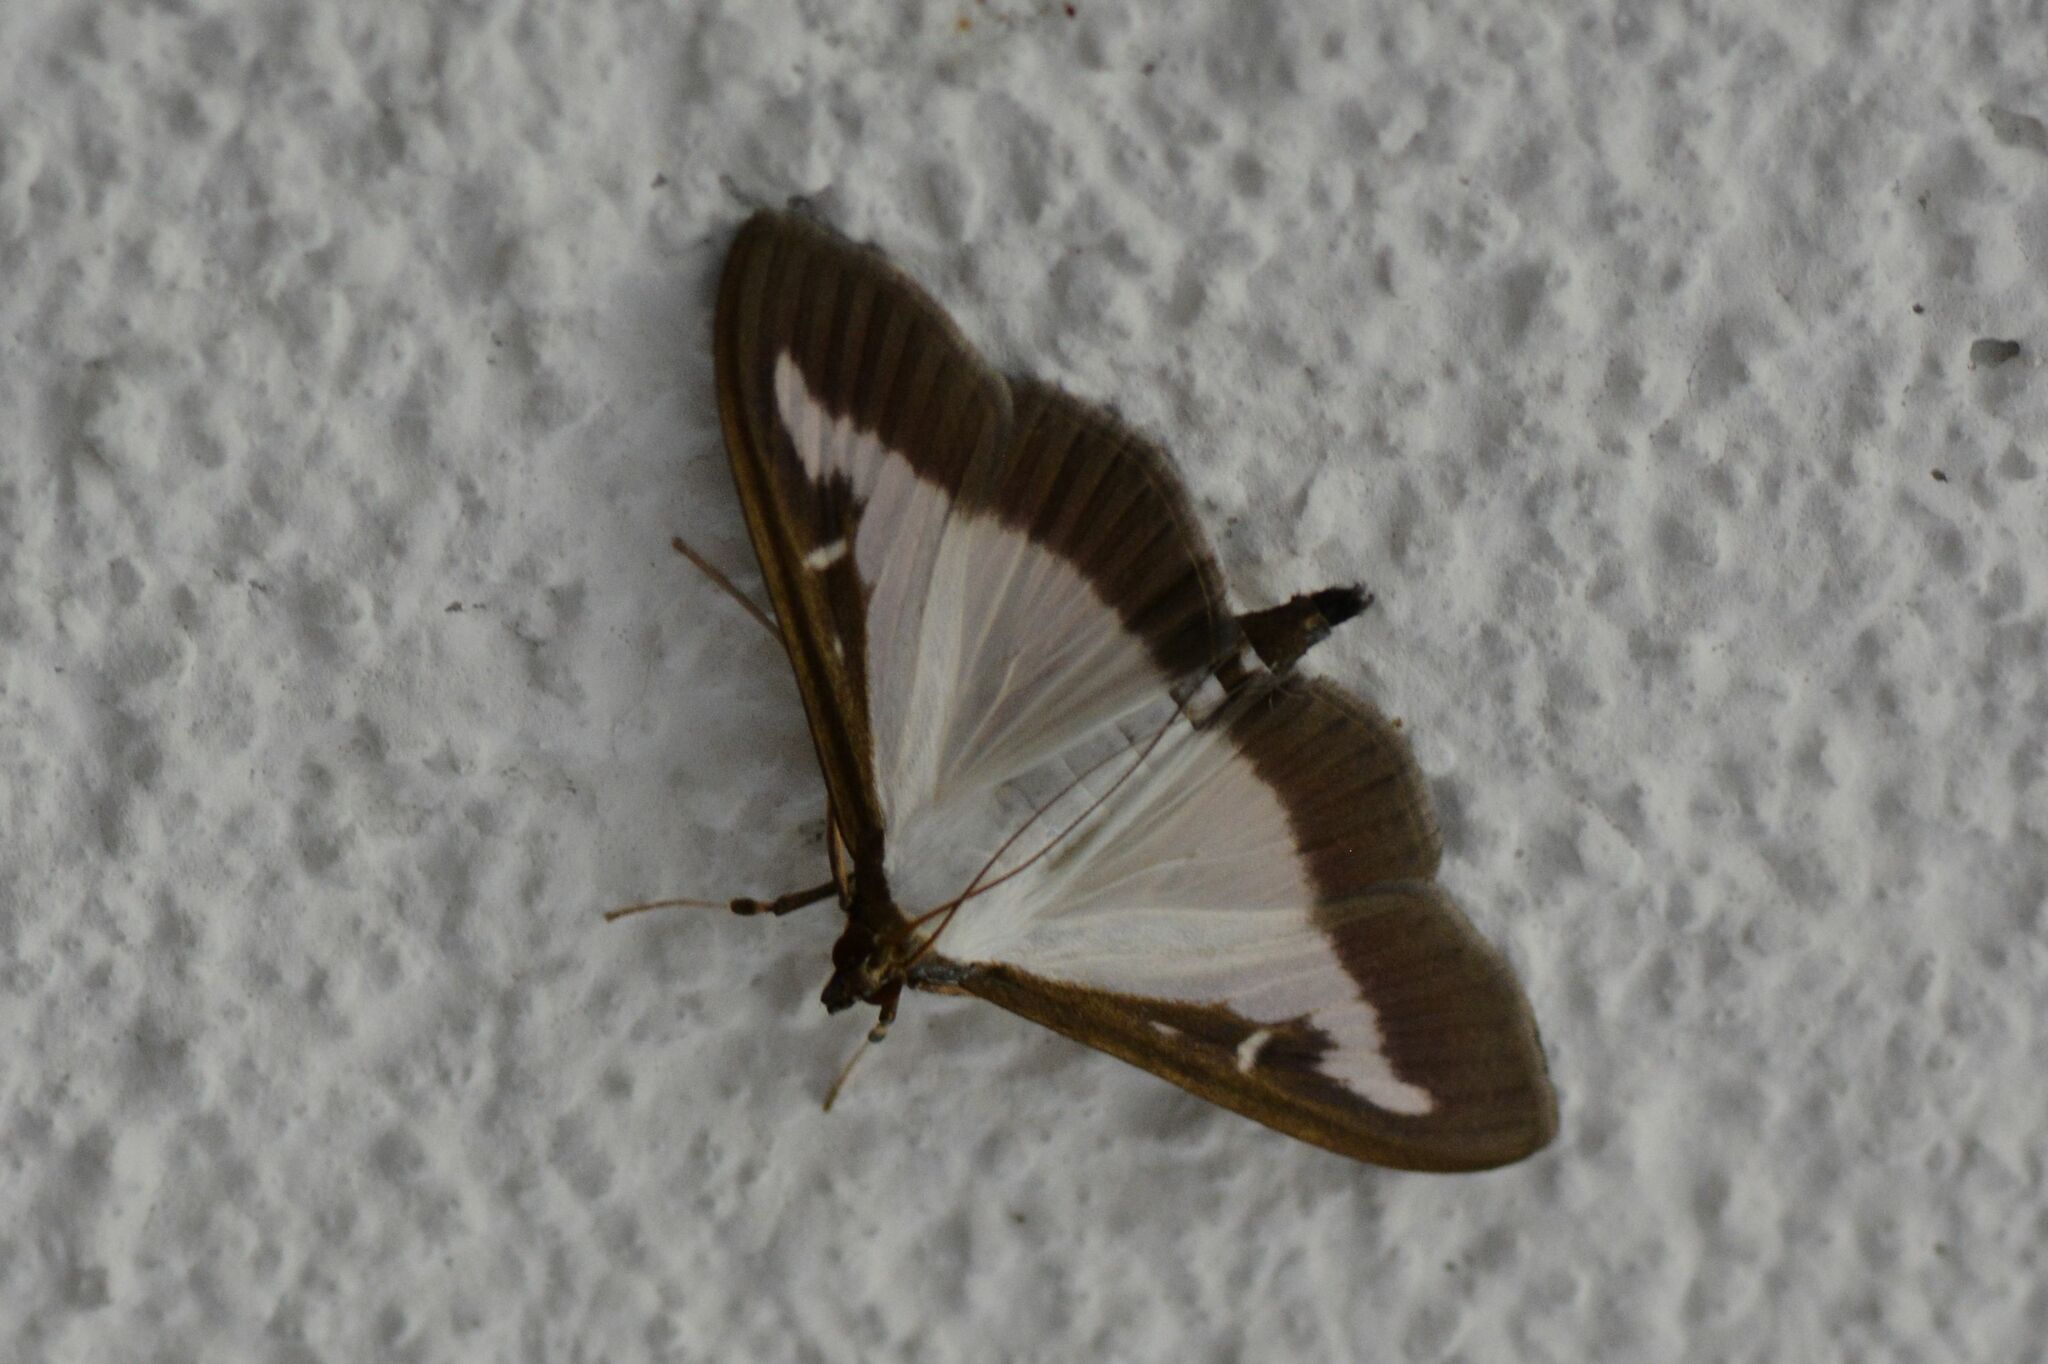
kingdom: Animalia
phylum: Arthropoda
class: Insecta
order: Lepidoptera
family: Crambidae
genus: Cydalima
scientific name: Cydalima perspectalis
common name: Box tree moth
